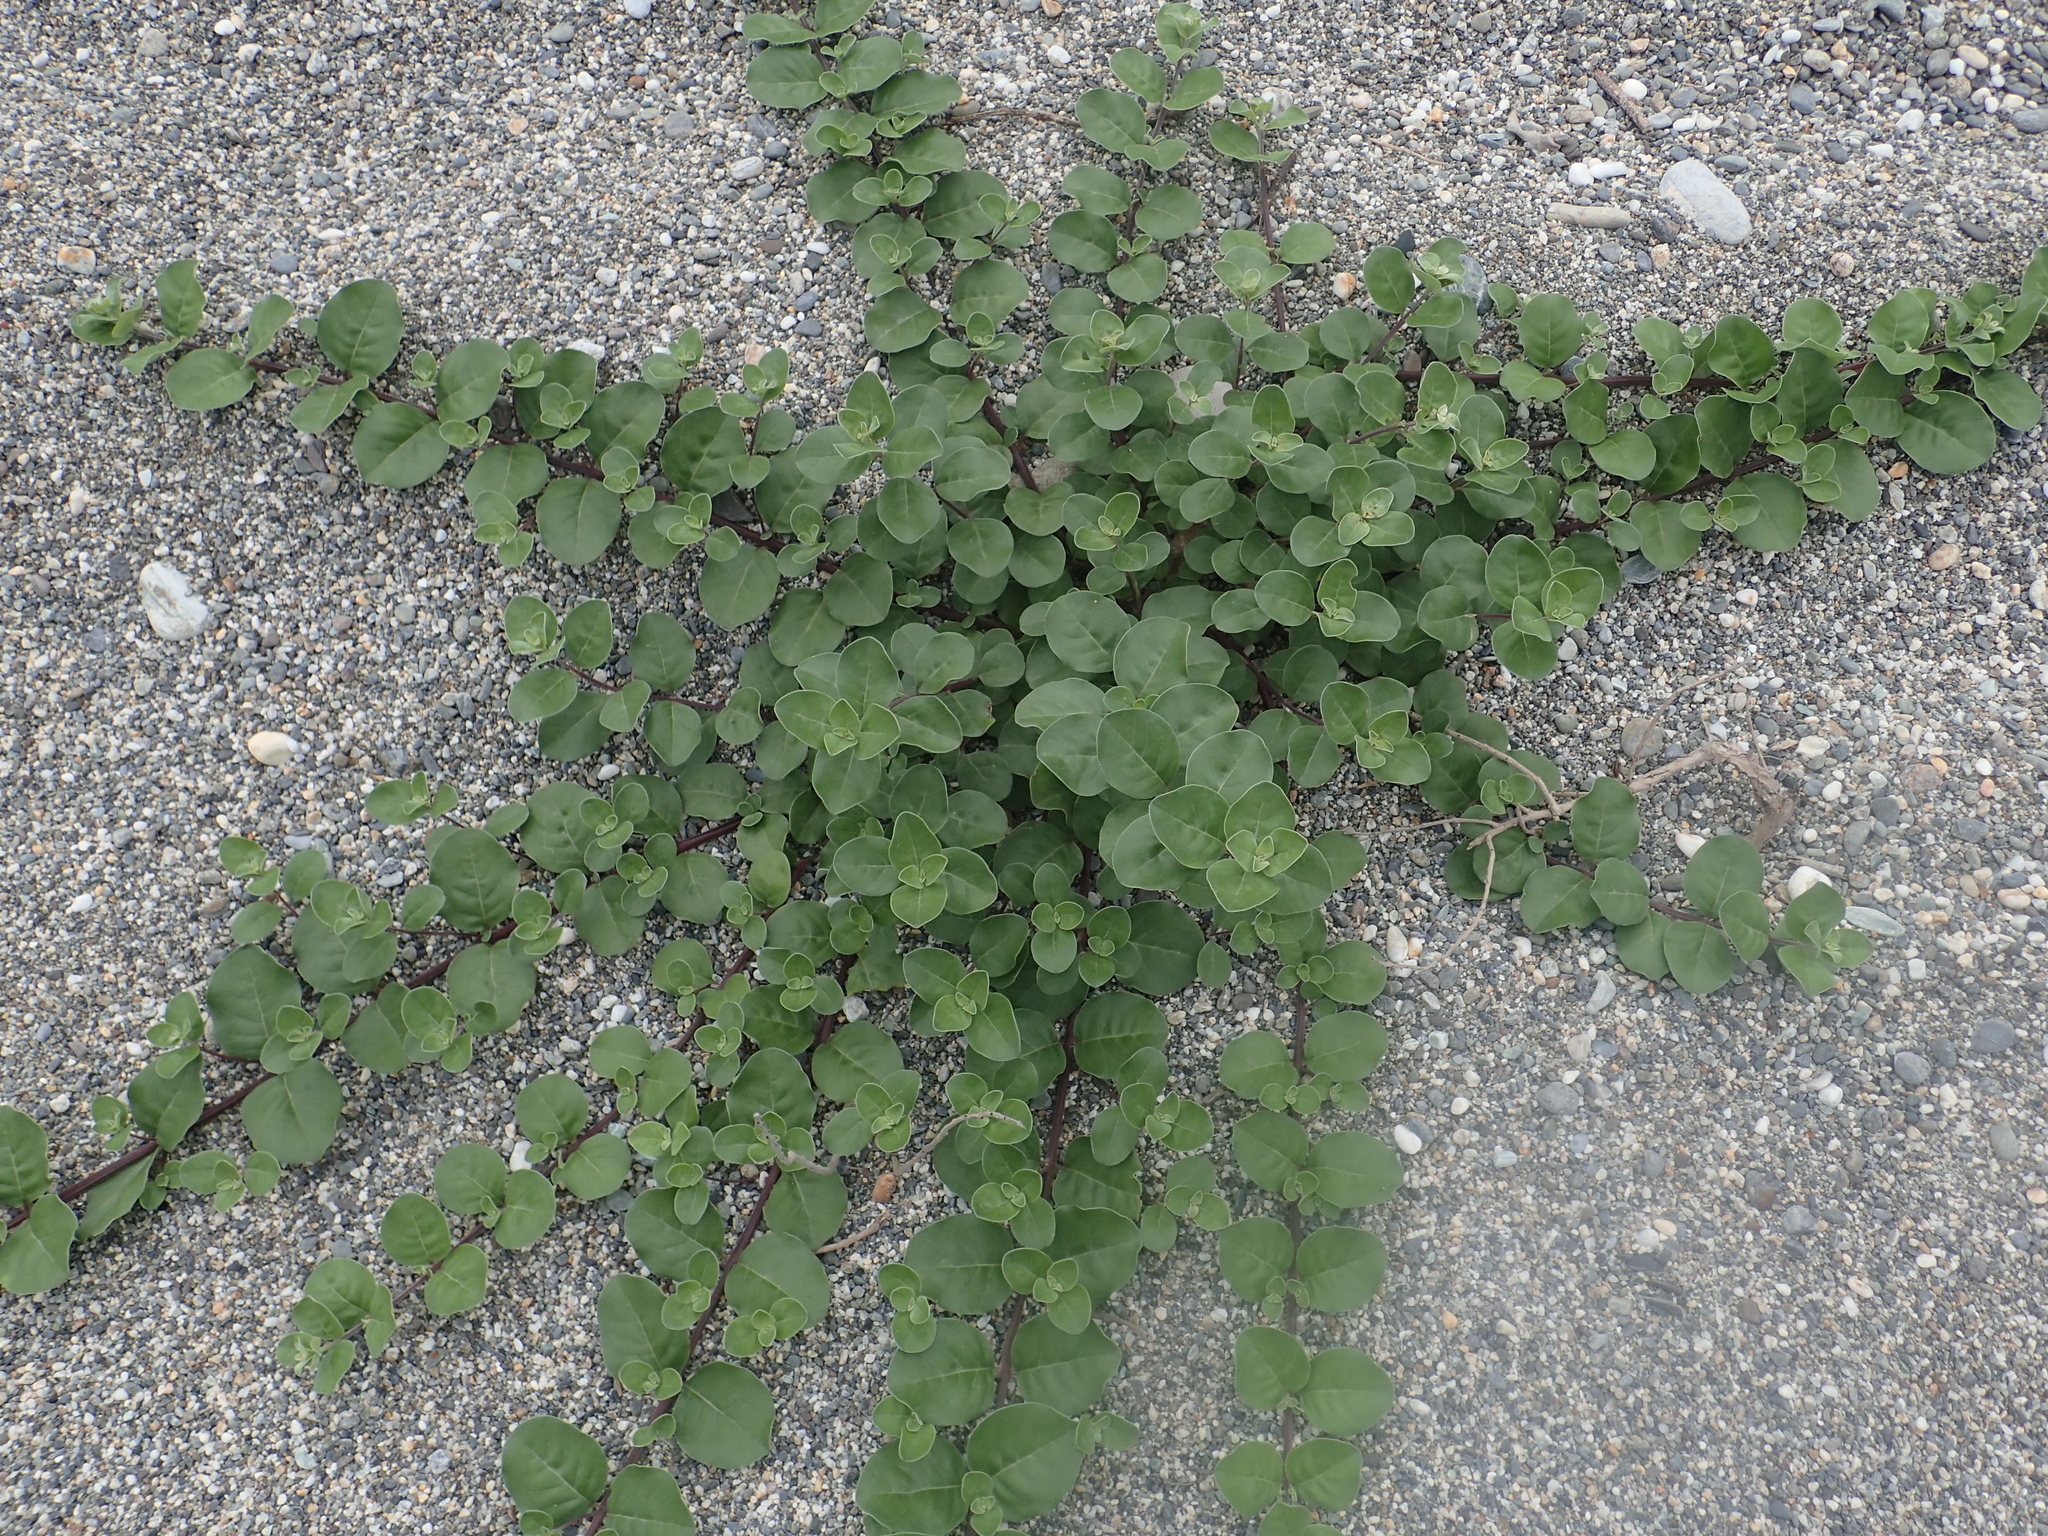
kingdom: Plantae
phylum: Tracheophyta
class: Magnoliopsida
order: Lamiales
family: Lamiaceae
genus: Vitex
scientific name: Vitex rotundifolia
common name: Beach vitex
